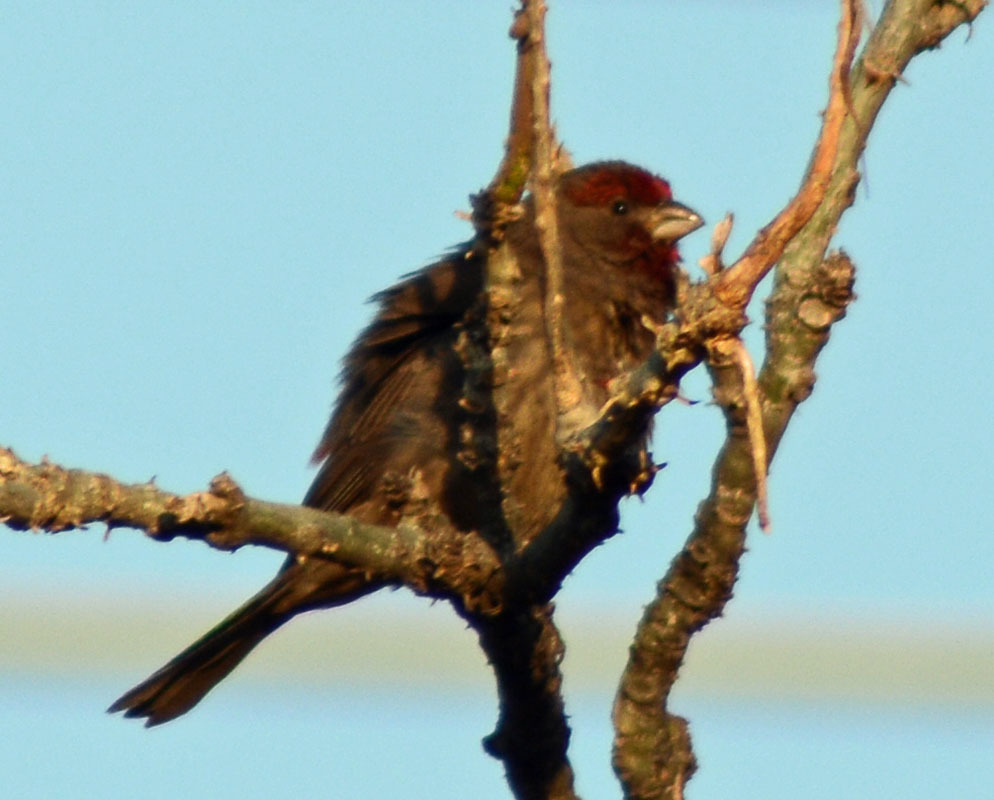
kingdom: Animalia
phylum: Chordata
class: Aves
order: Passeriformes
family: Fringillidae
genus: Haemorhous
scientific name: Haemorhous mexicanus
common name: House finch
